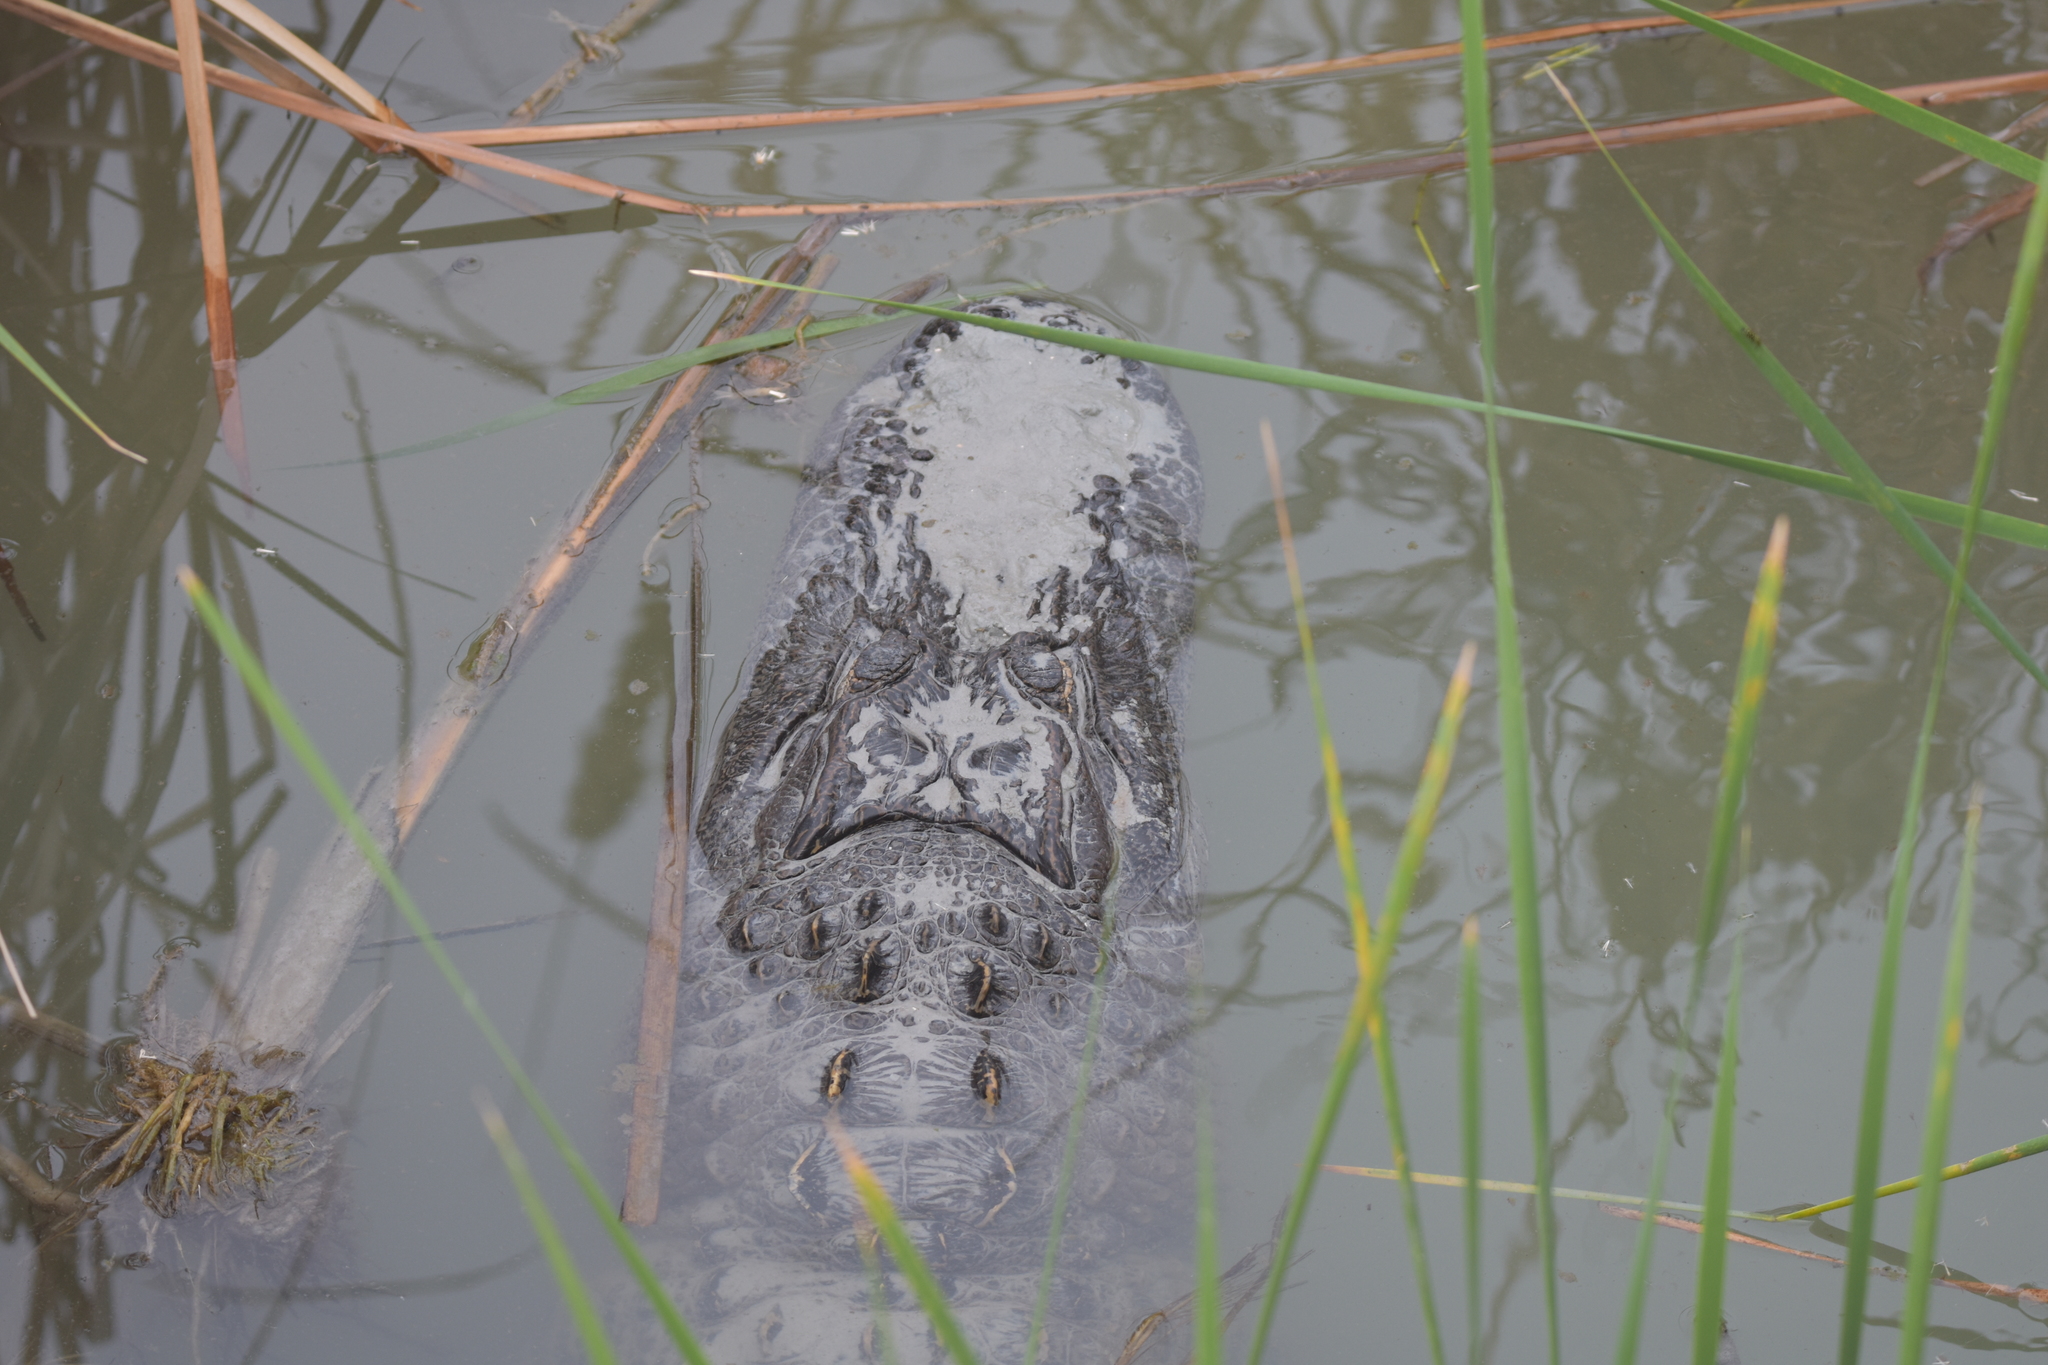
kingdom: Animalia
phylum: Chordata
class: Crocodylia
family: Alligatoridae
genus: Alligator
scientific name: Alligator mississippiensis
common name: American alligator
